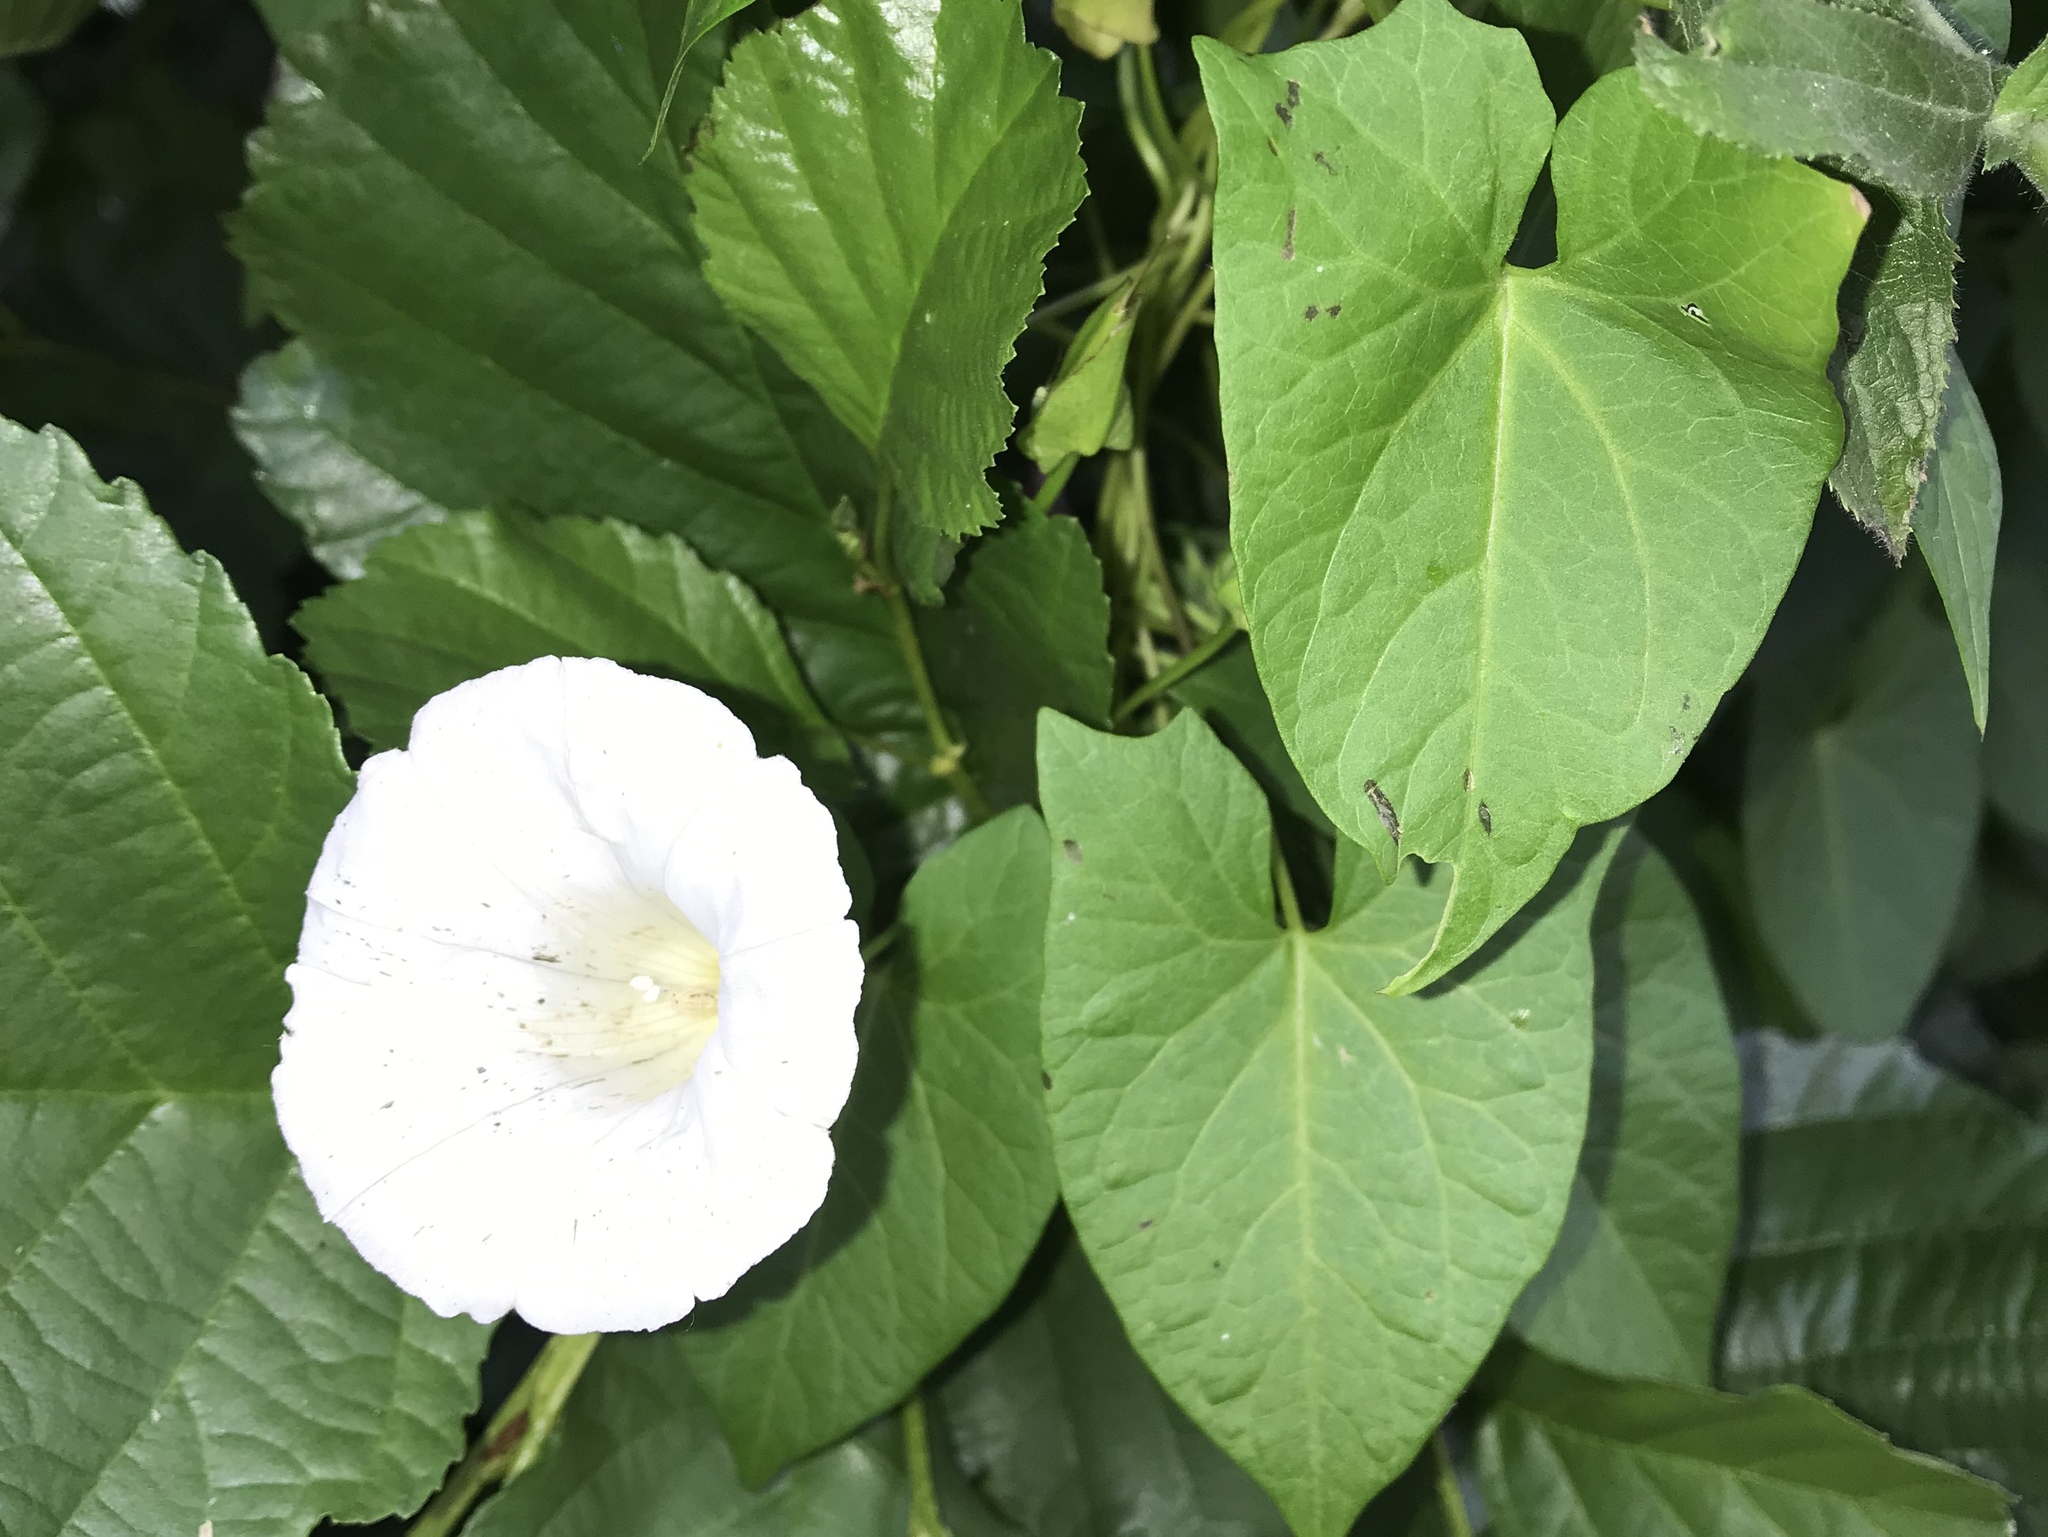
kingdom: Plantae
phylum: Tracheophyta
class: Magnoliopsida
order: Solanales
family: Convolvulaceae
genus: Calystegia
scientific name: Calystegia sepium
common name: Hedge bindweed
